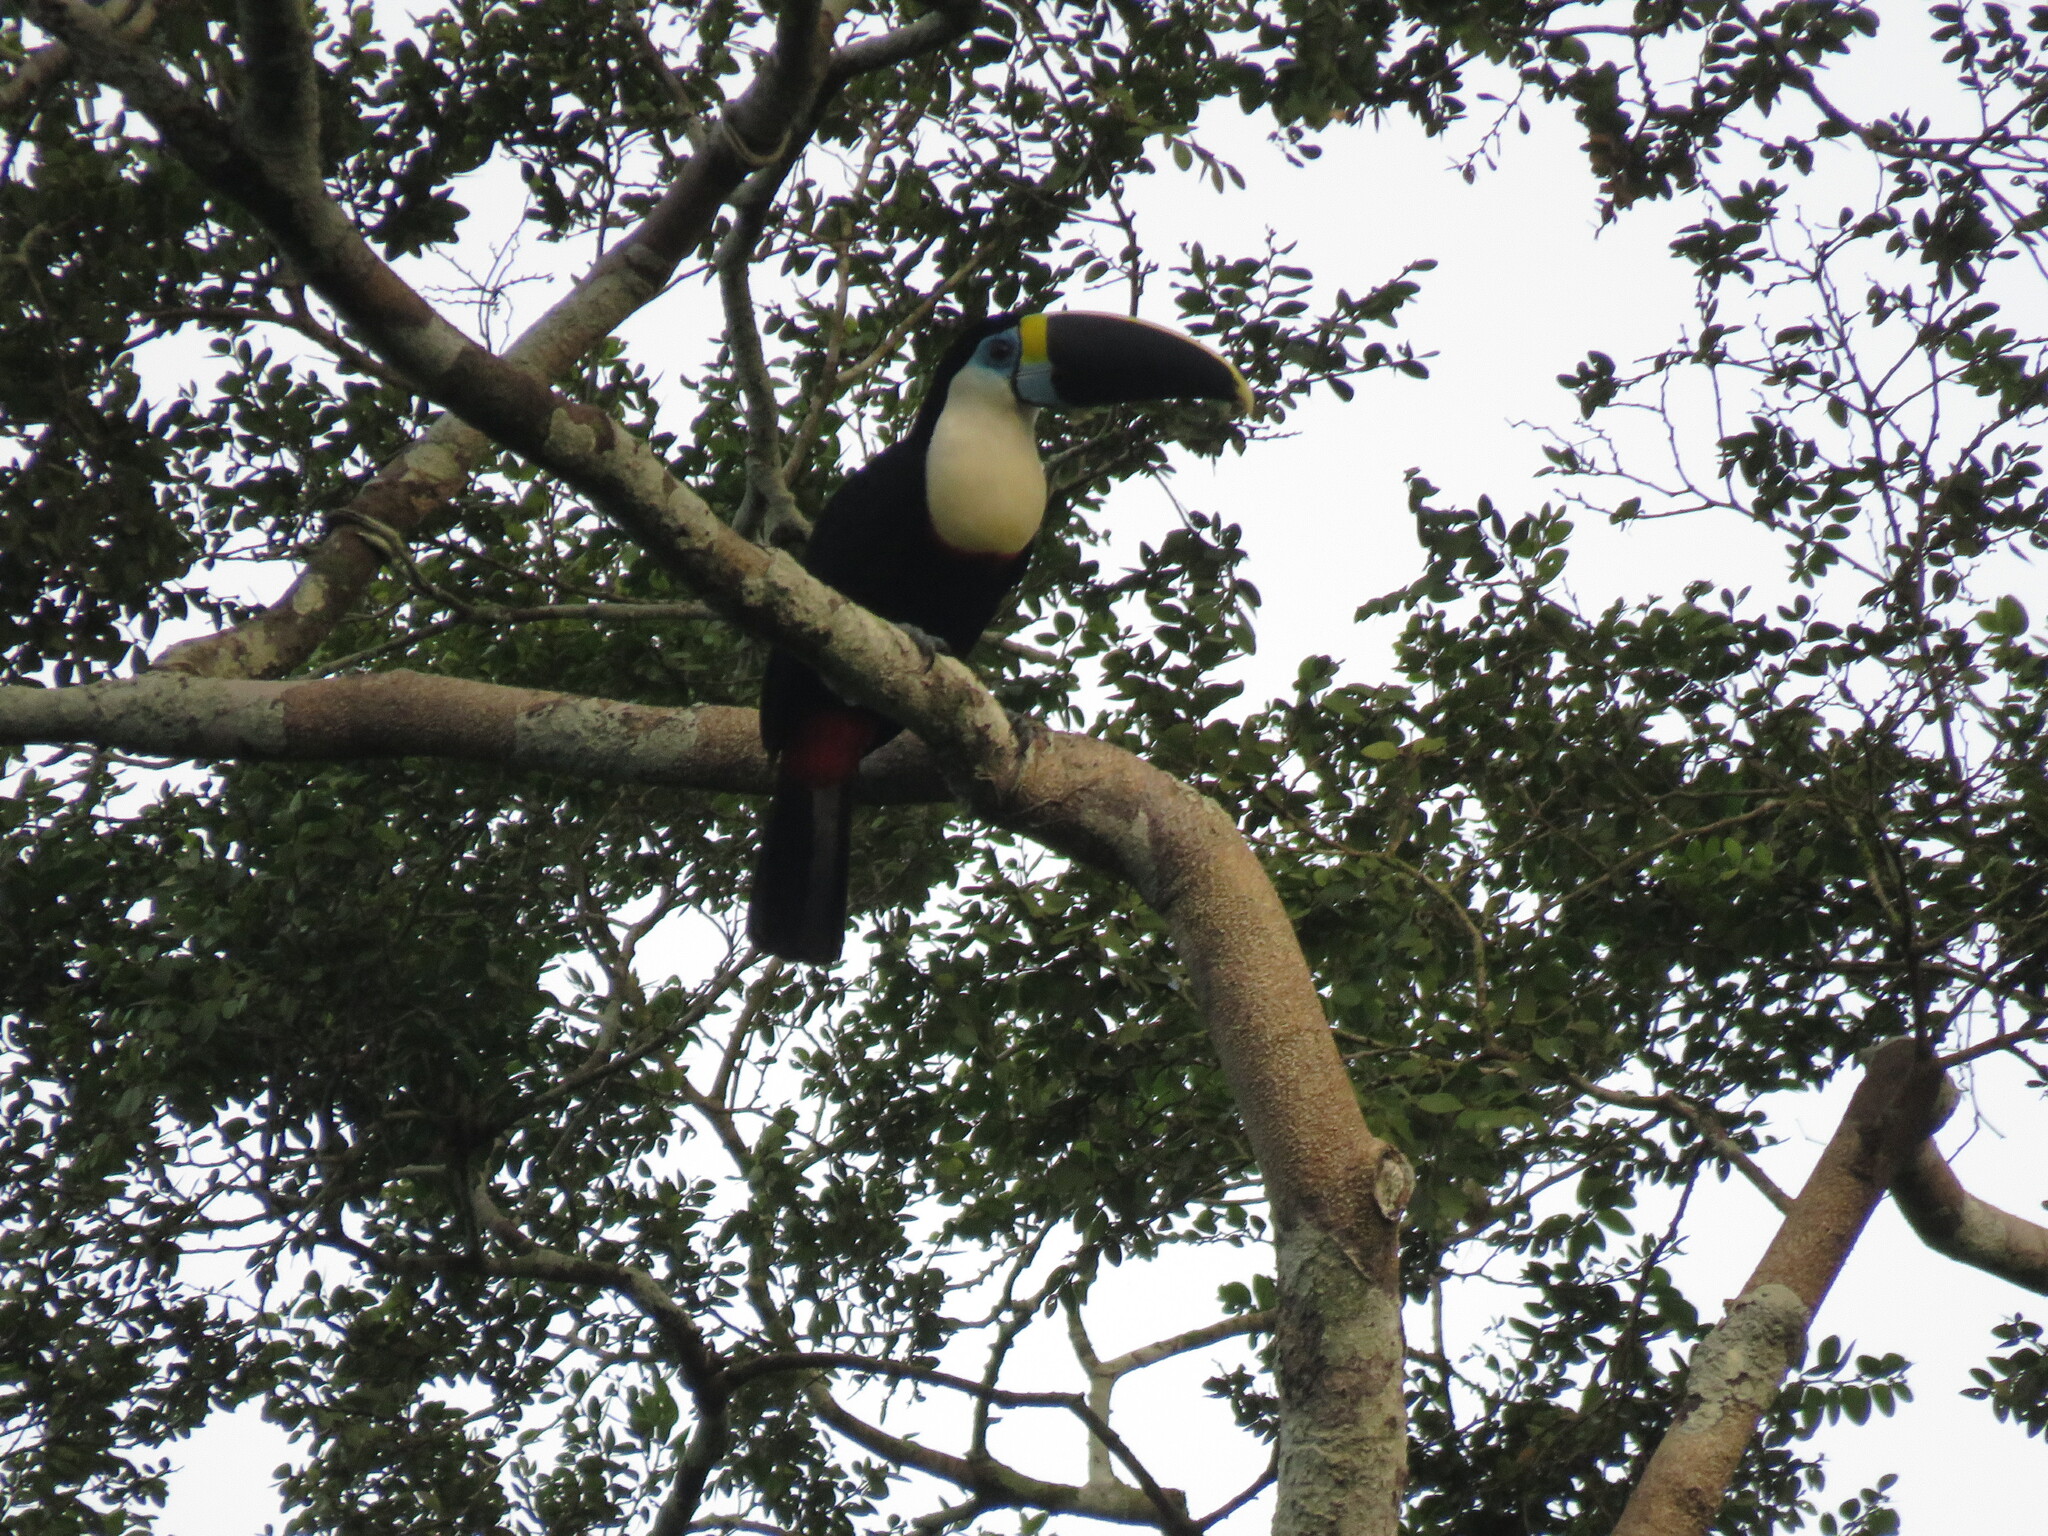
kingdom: Animalia
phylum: Chordata
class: Aves
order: Piciformes
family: Ramphastidae
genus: Ramphastos
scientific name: Ramphastos tucanus
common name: White-throated toucan
